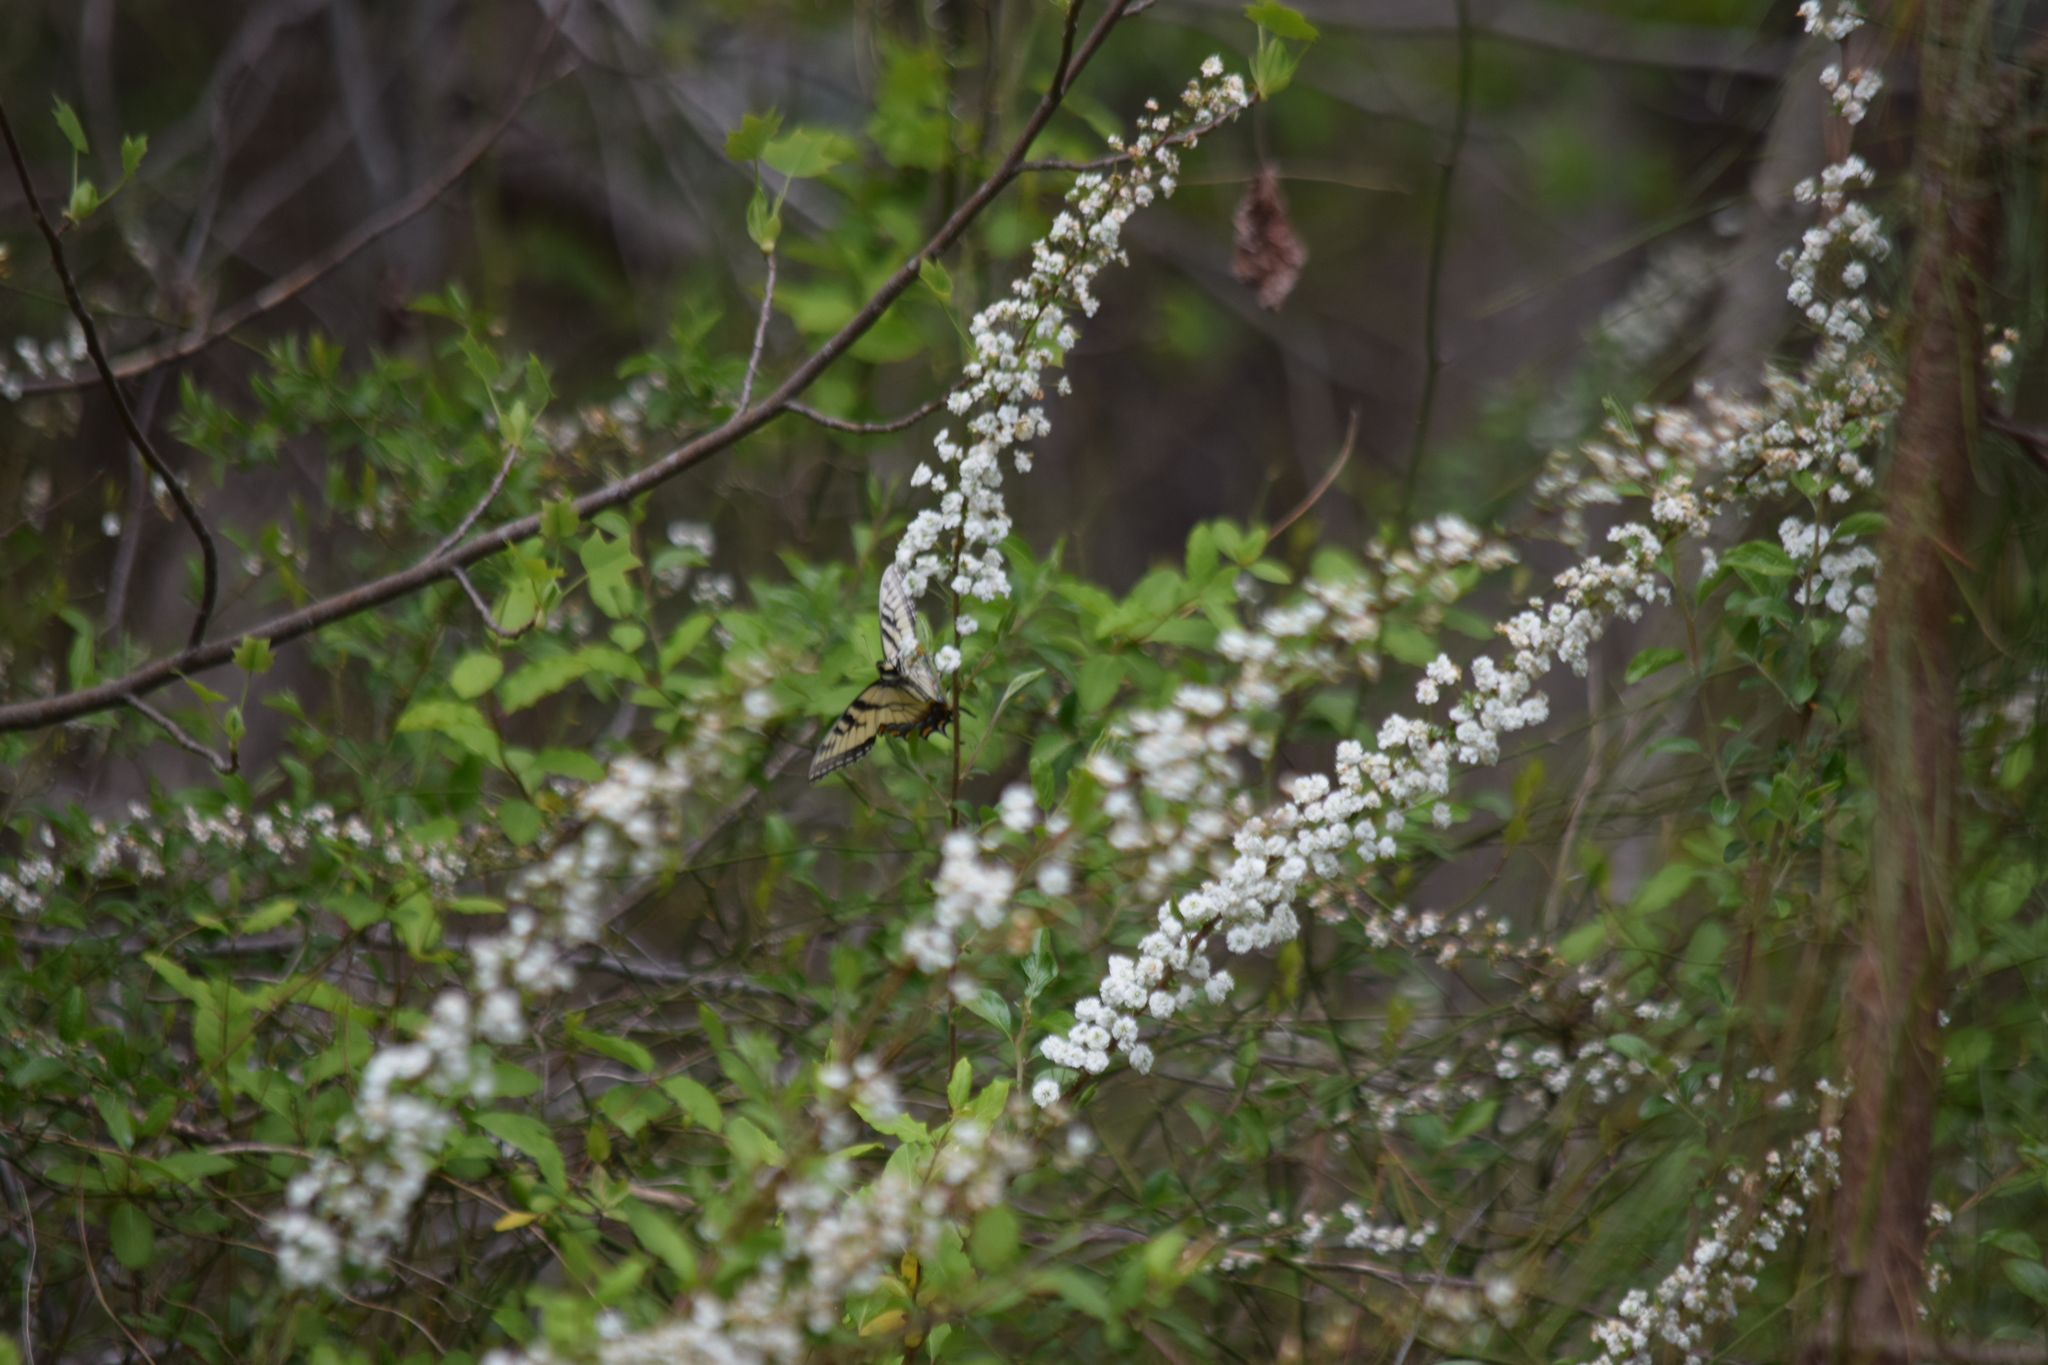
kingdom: Animalia
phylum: Arthropoda
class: Insecta
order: Lepidoptera
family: Papilionidae
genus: Papilio
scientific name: Papilio glaucus
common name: Tiger swallowtail
